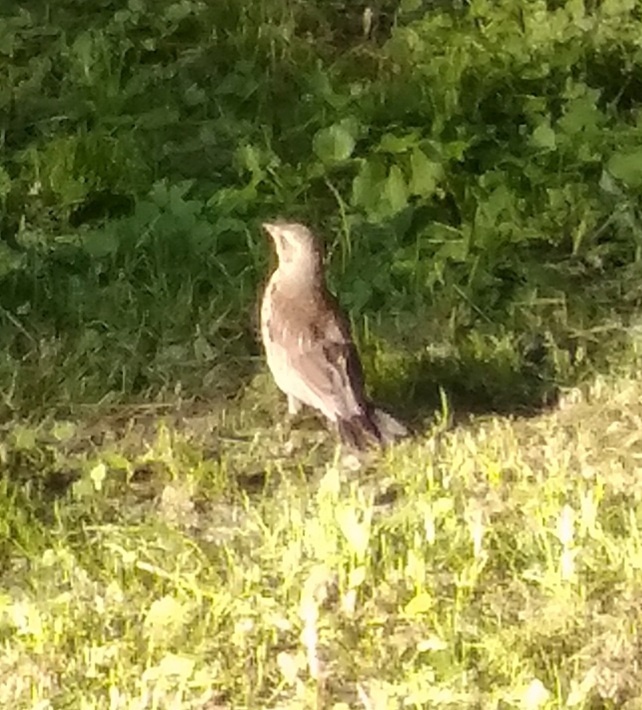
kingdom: Animalia
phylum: Chordata
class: Aves
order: Passeriformes
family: Turdidae
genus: Turdus
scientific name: Turdus pilaris
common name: Fieldfare
